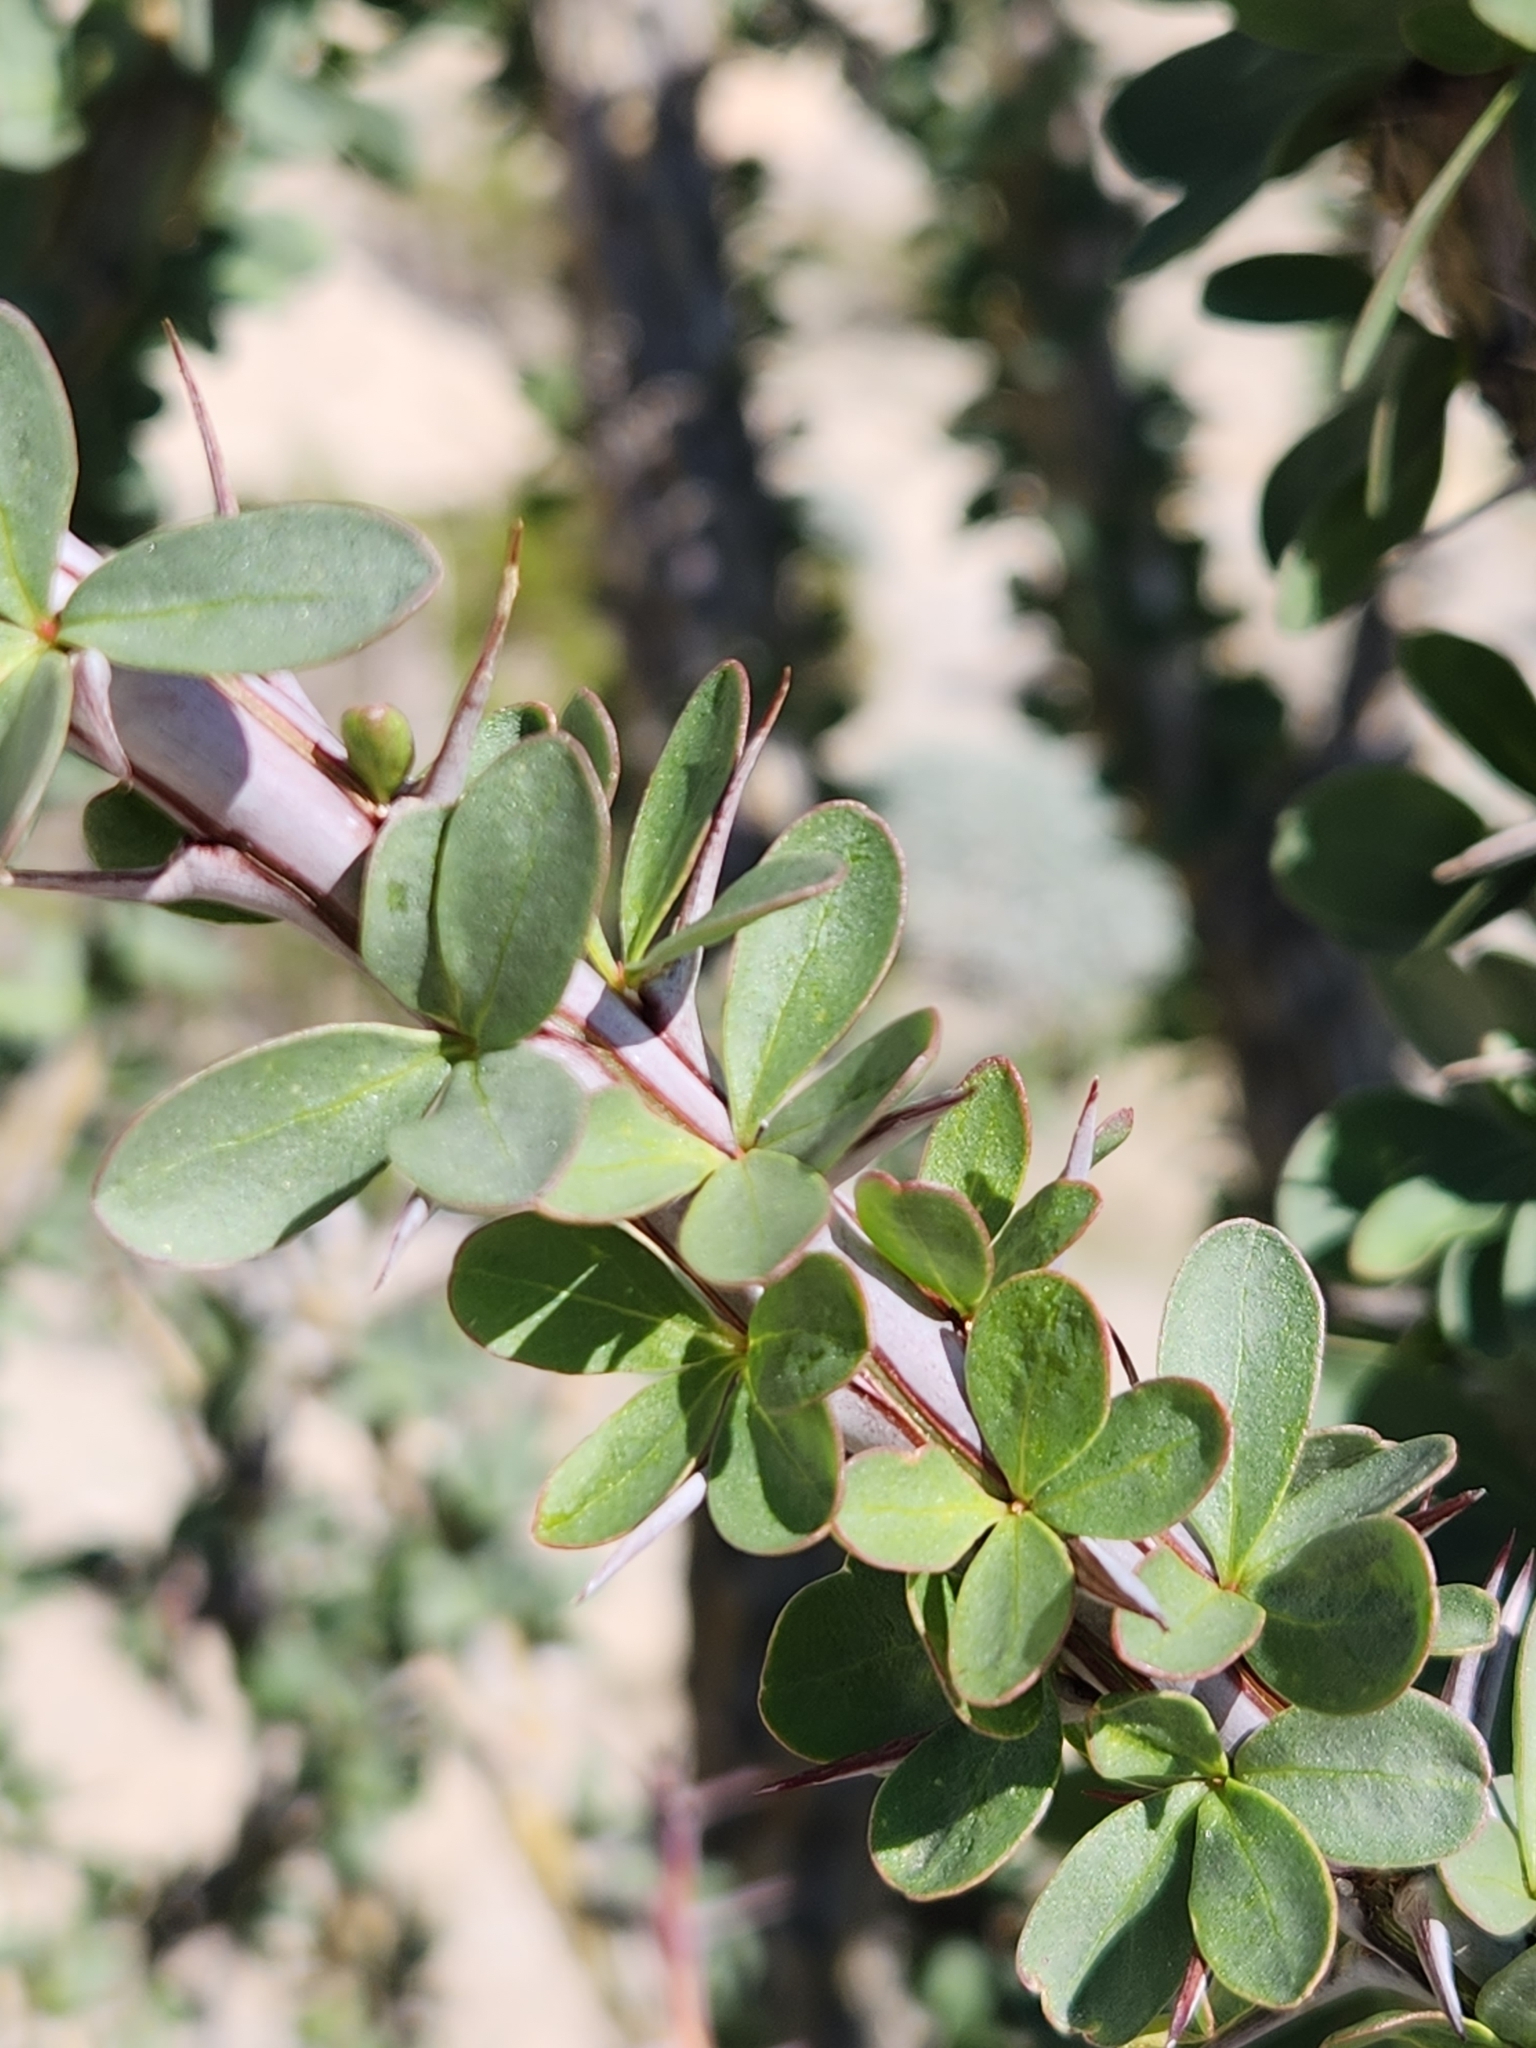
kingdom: Plantae
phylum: Tracheophyta
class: Magnoliopsida
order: Ericales
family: Fouquieriaceae
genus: Fouquieria
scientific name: Fouquieria splendens
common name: Vine-cactus
